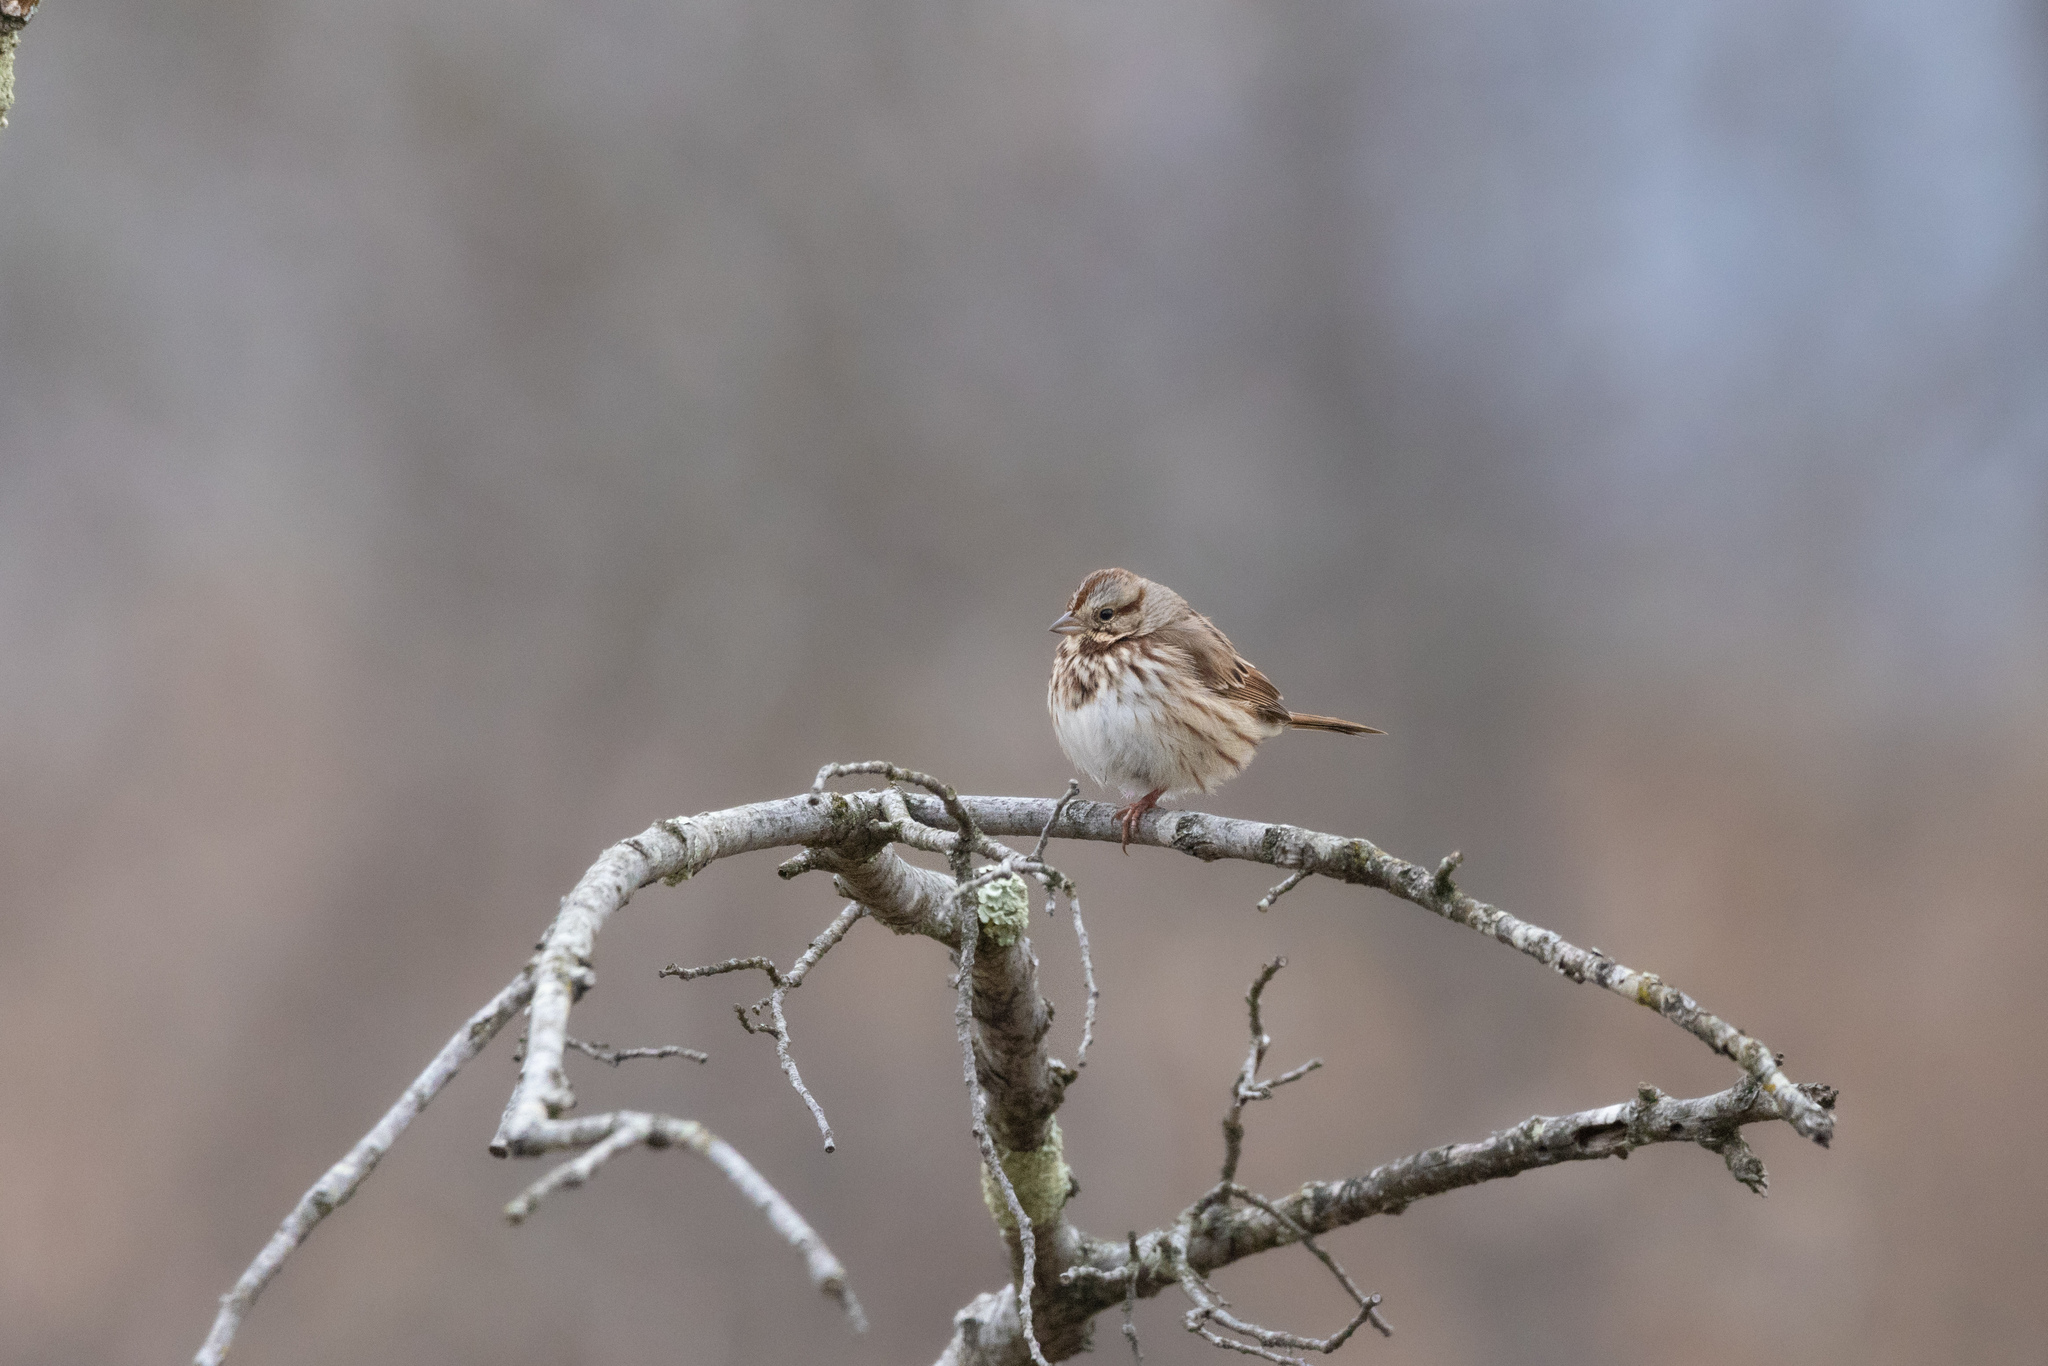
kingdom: Animalia
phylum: Chordata
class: Aves
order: Passeriformes
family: Passerellidae
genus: Melospiza
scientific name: Melospiza melodia
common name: Song sparrow
